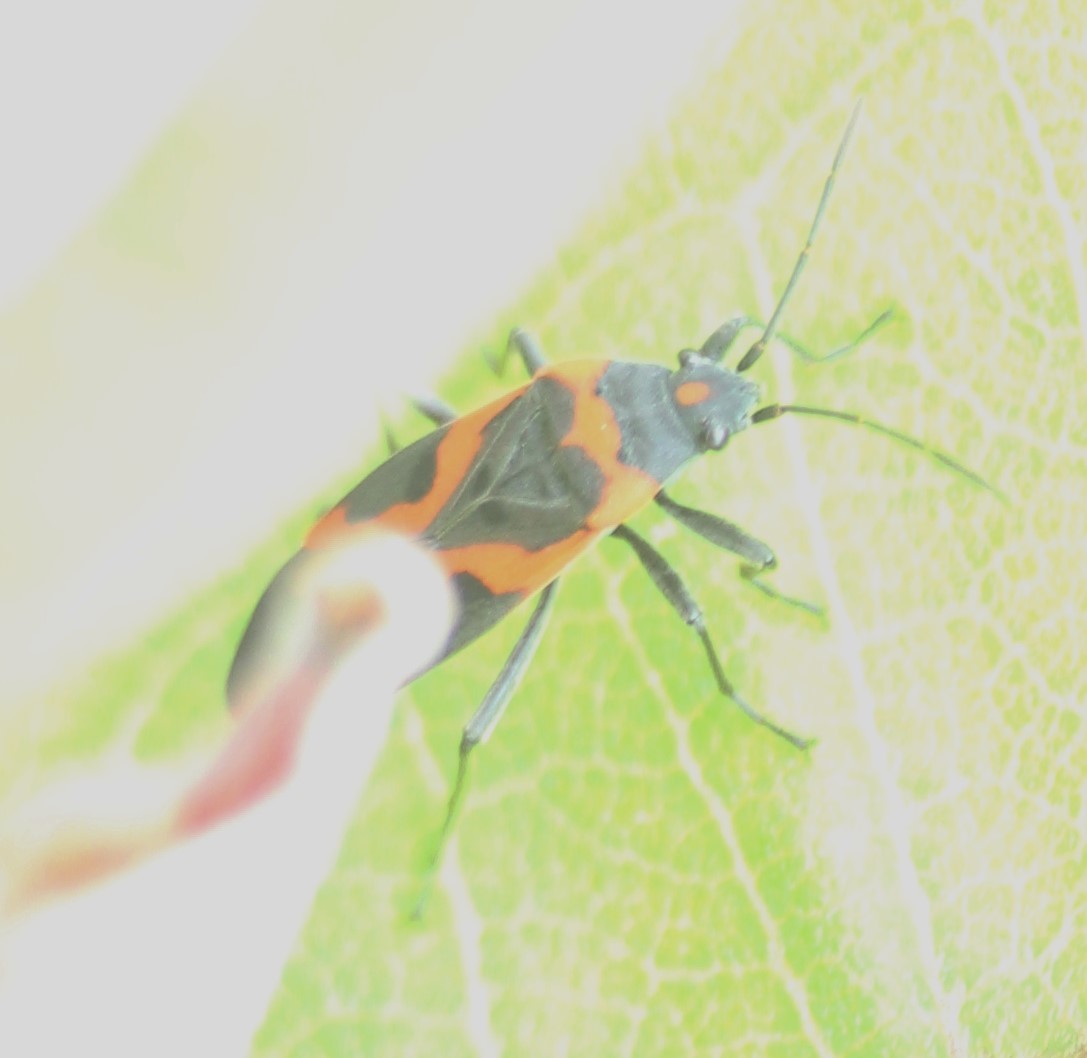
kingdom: Animalia
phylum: Arthropoda
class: Insecta
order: Hemiptera
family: Lygaeidae
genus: Lygaeus
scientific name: Lygaeus kalmii
